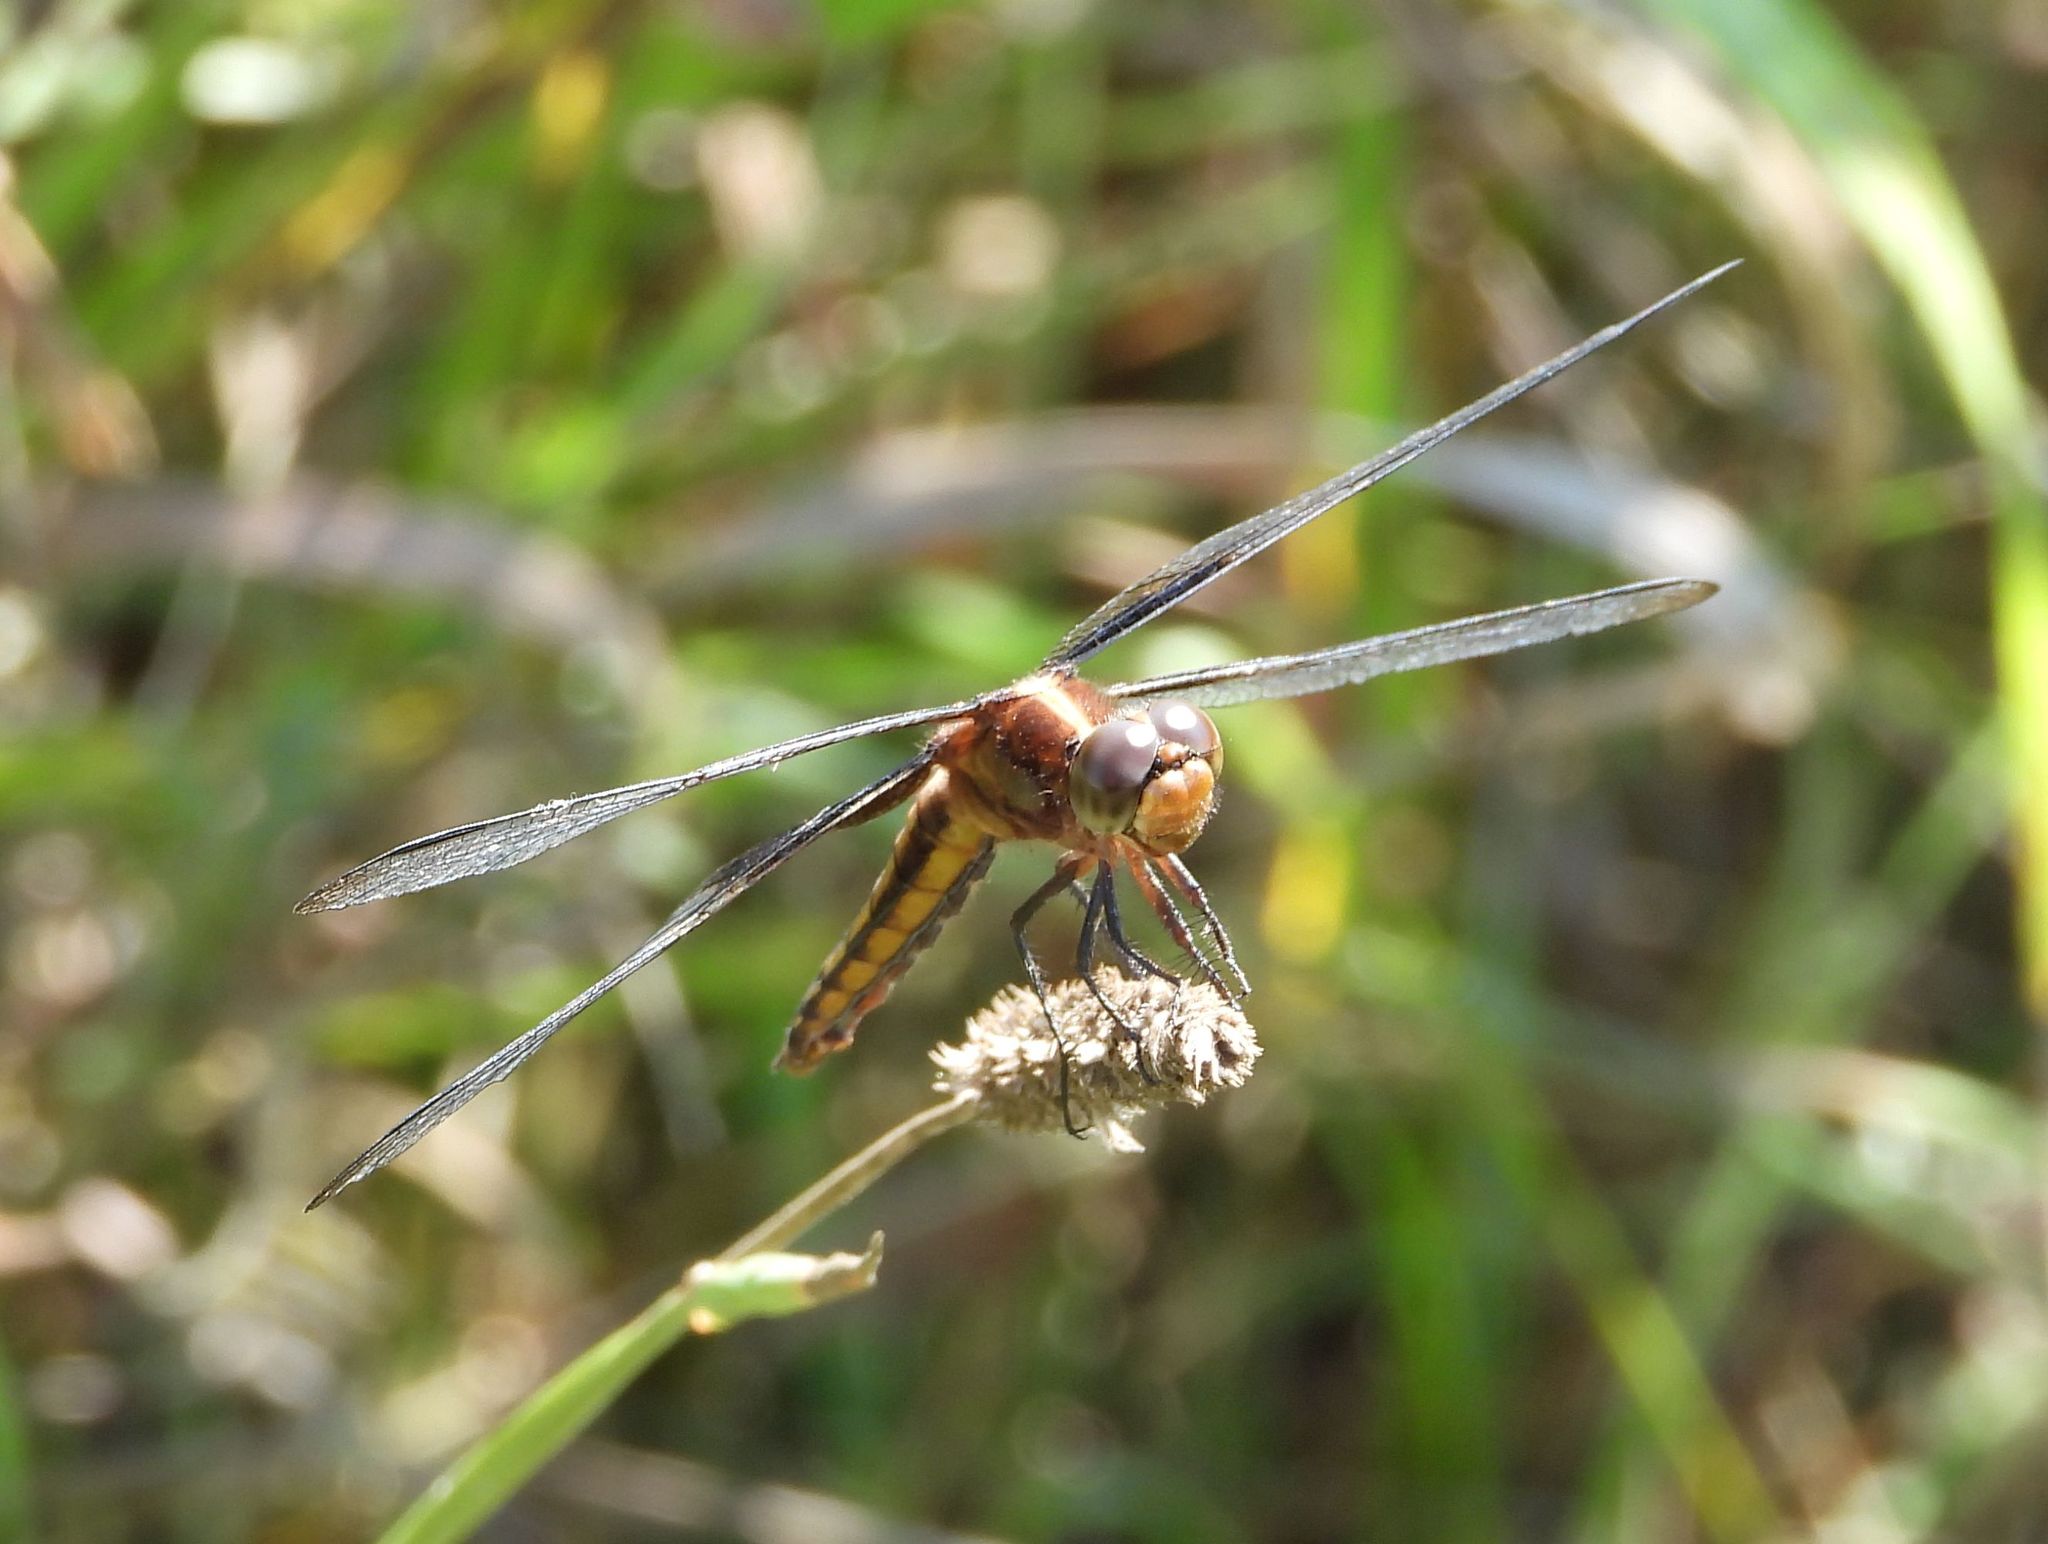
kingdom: Animalia
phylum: Arthropoda
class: Insecta
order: Odonata
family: Libellulidae
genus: Libellula
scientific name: Libellula luctuosa
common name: Widow skimmer
